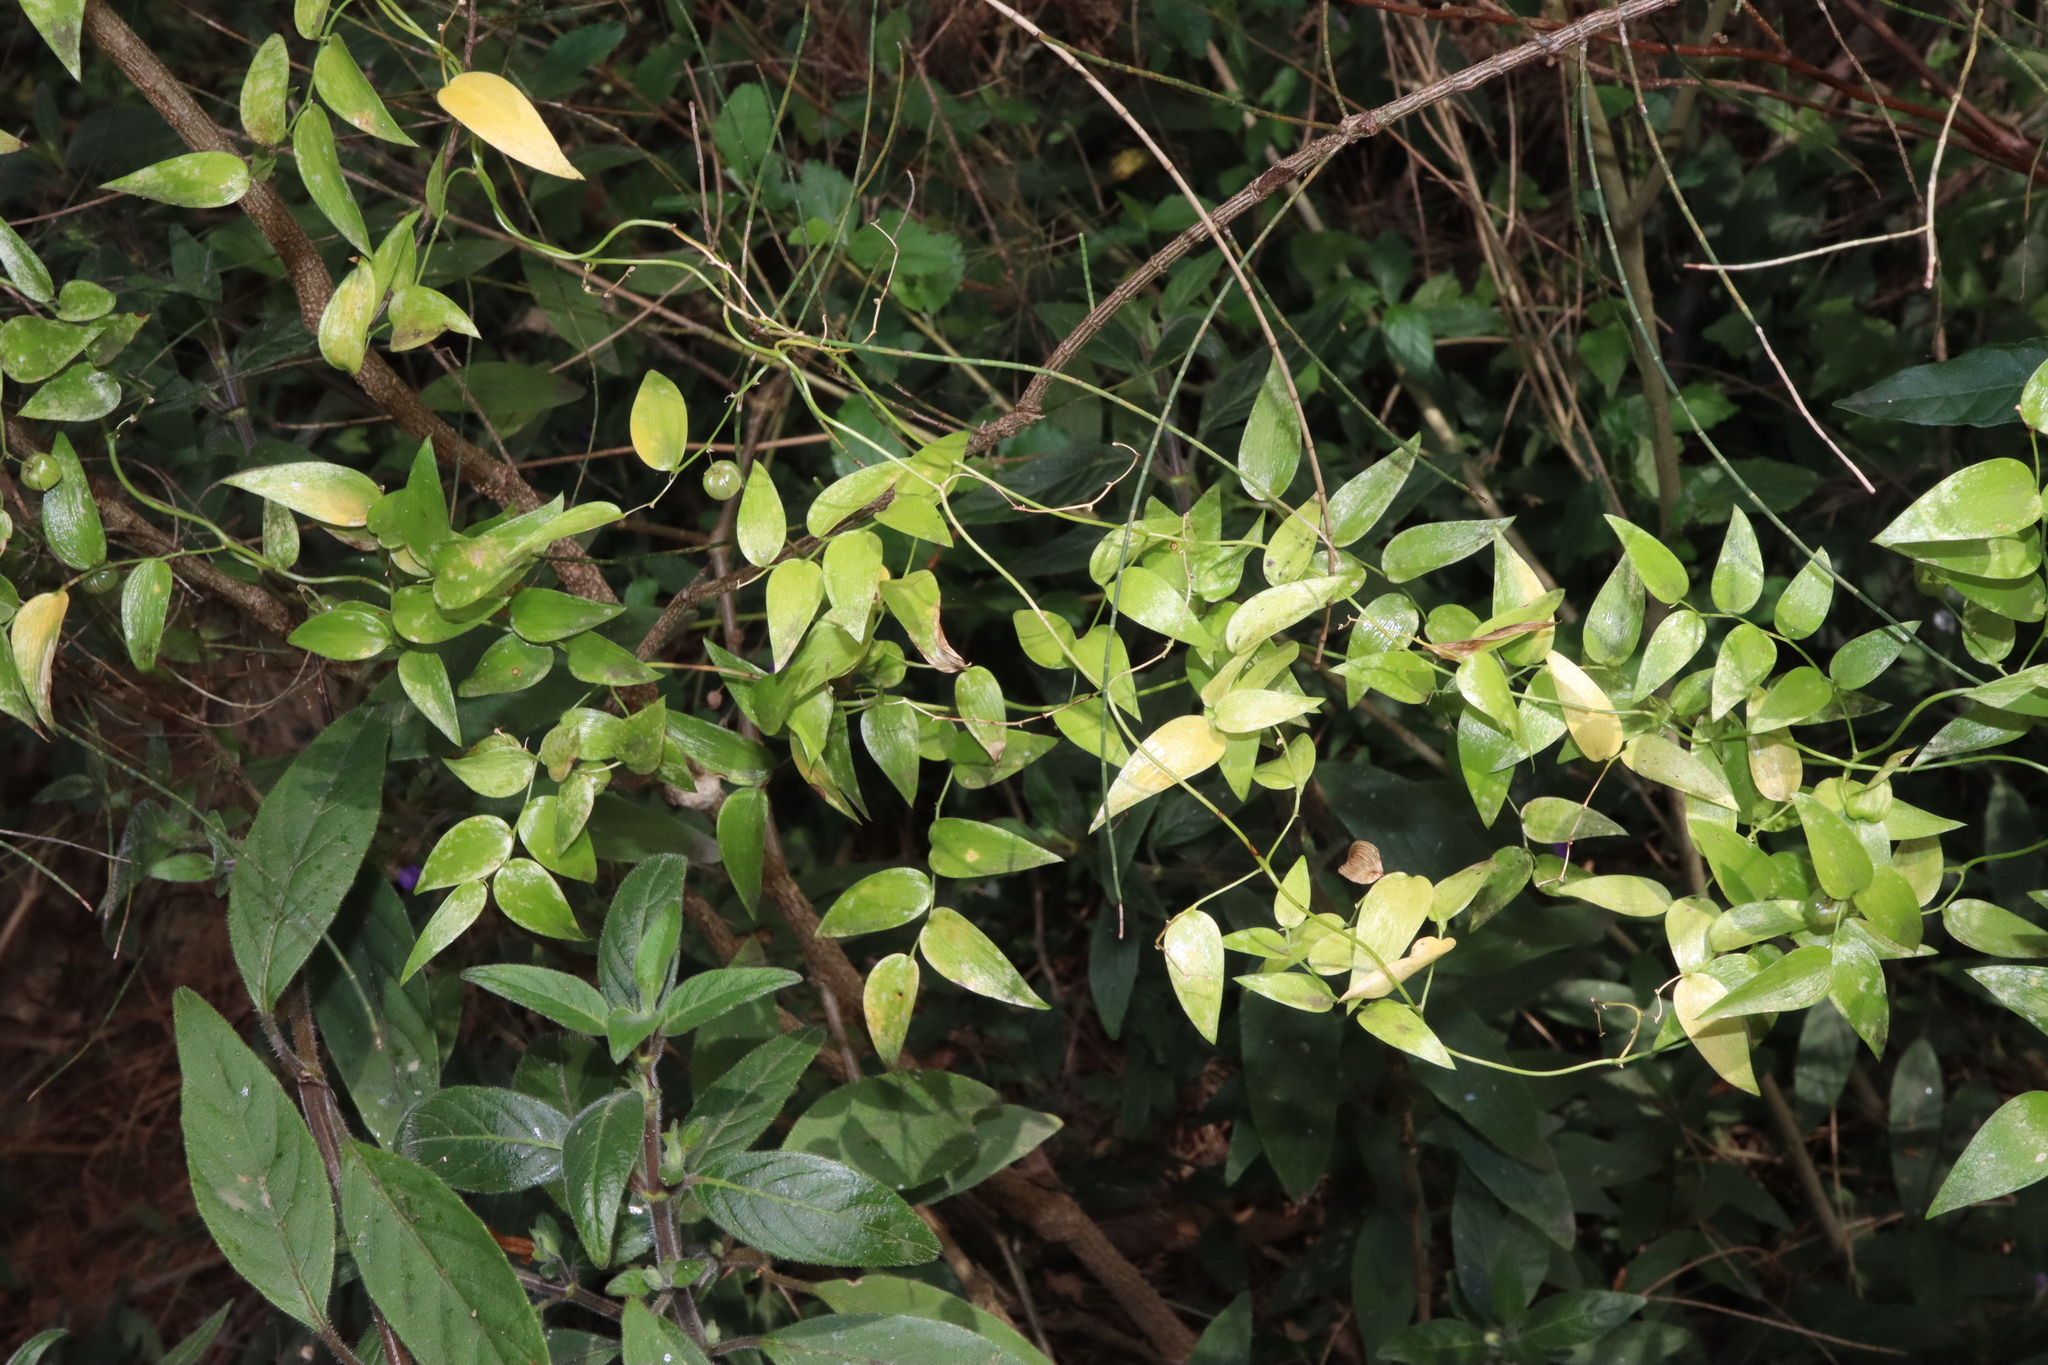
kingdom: Plantae
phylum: Tracheophyta
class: Liliopsida
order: Asparagales
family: Asparagaceae
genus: Asparagus
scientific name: Asparagus asparagoides
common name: African asparagus fern
